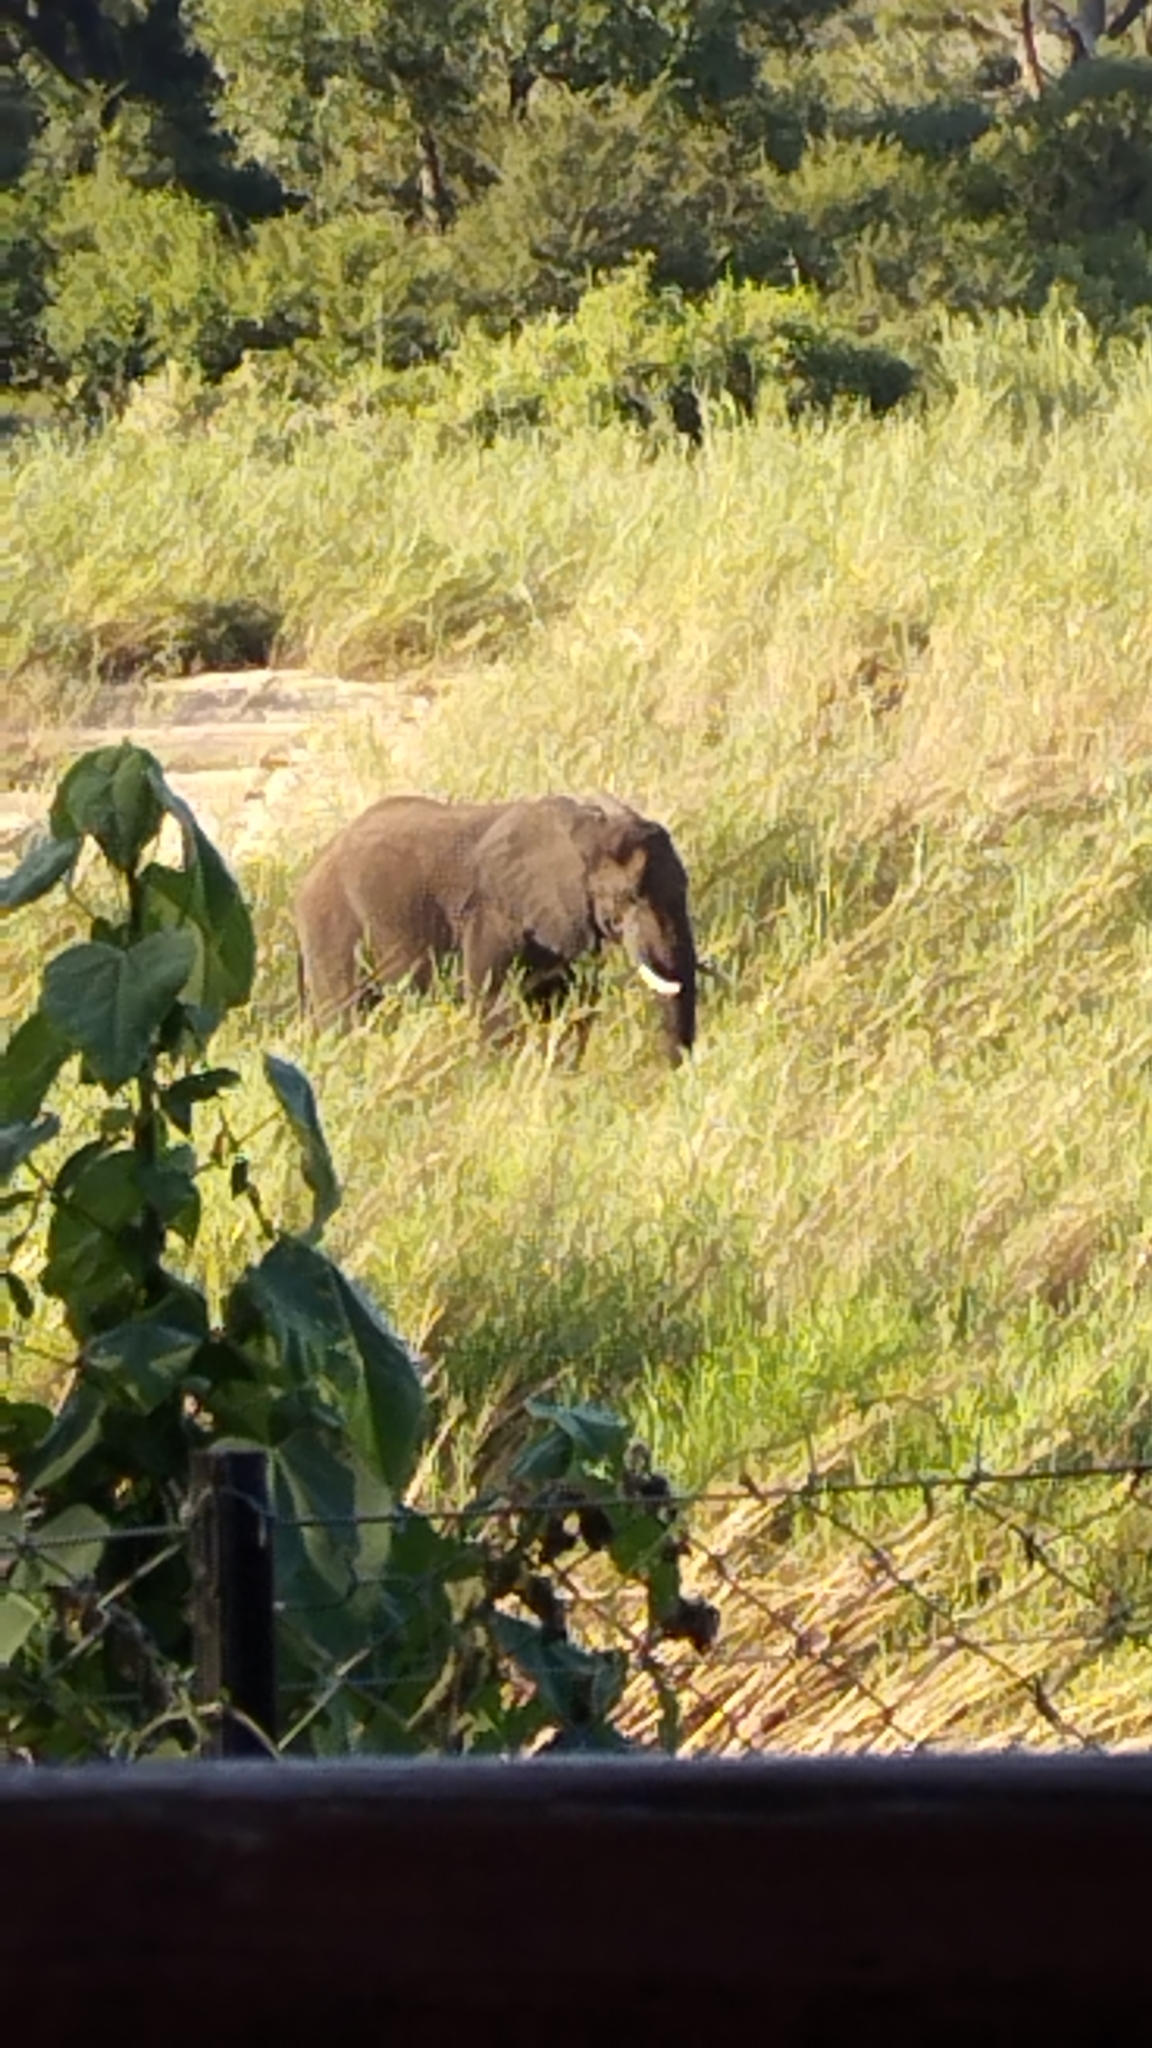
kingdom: Animalia
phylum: Chordata
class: Mammalia
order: Proboscidea
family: Elephantidae
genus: Loxodonta
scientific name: Loxodonta africana
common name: African elephant
